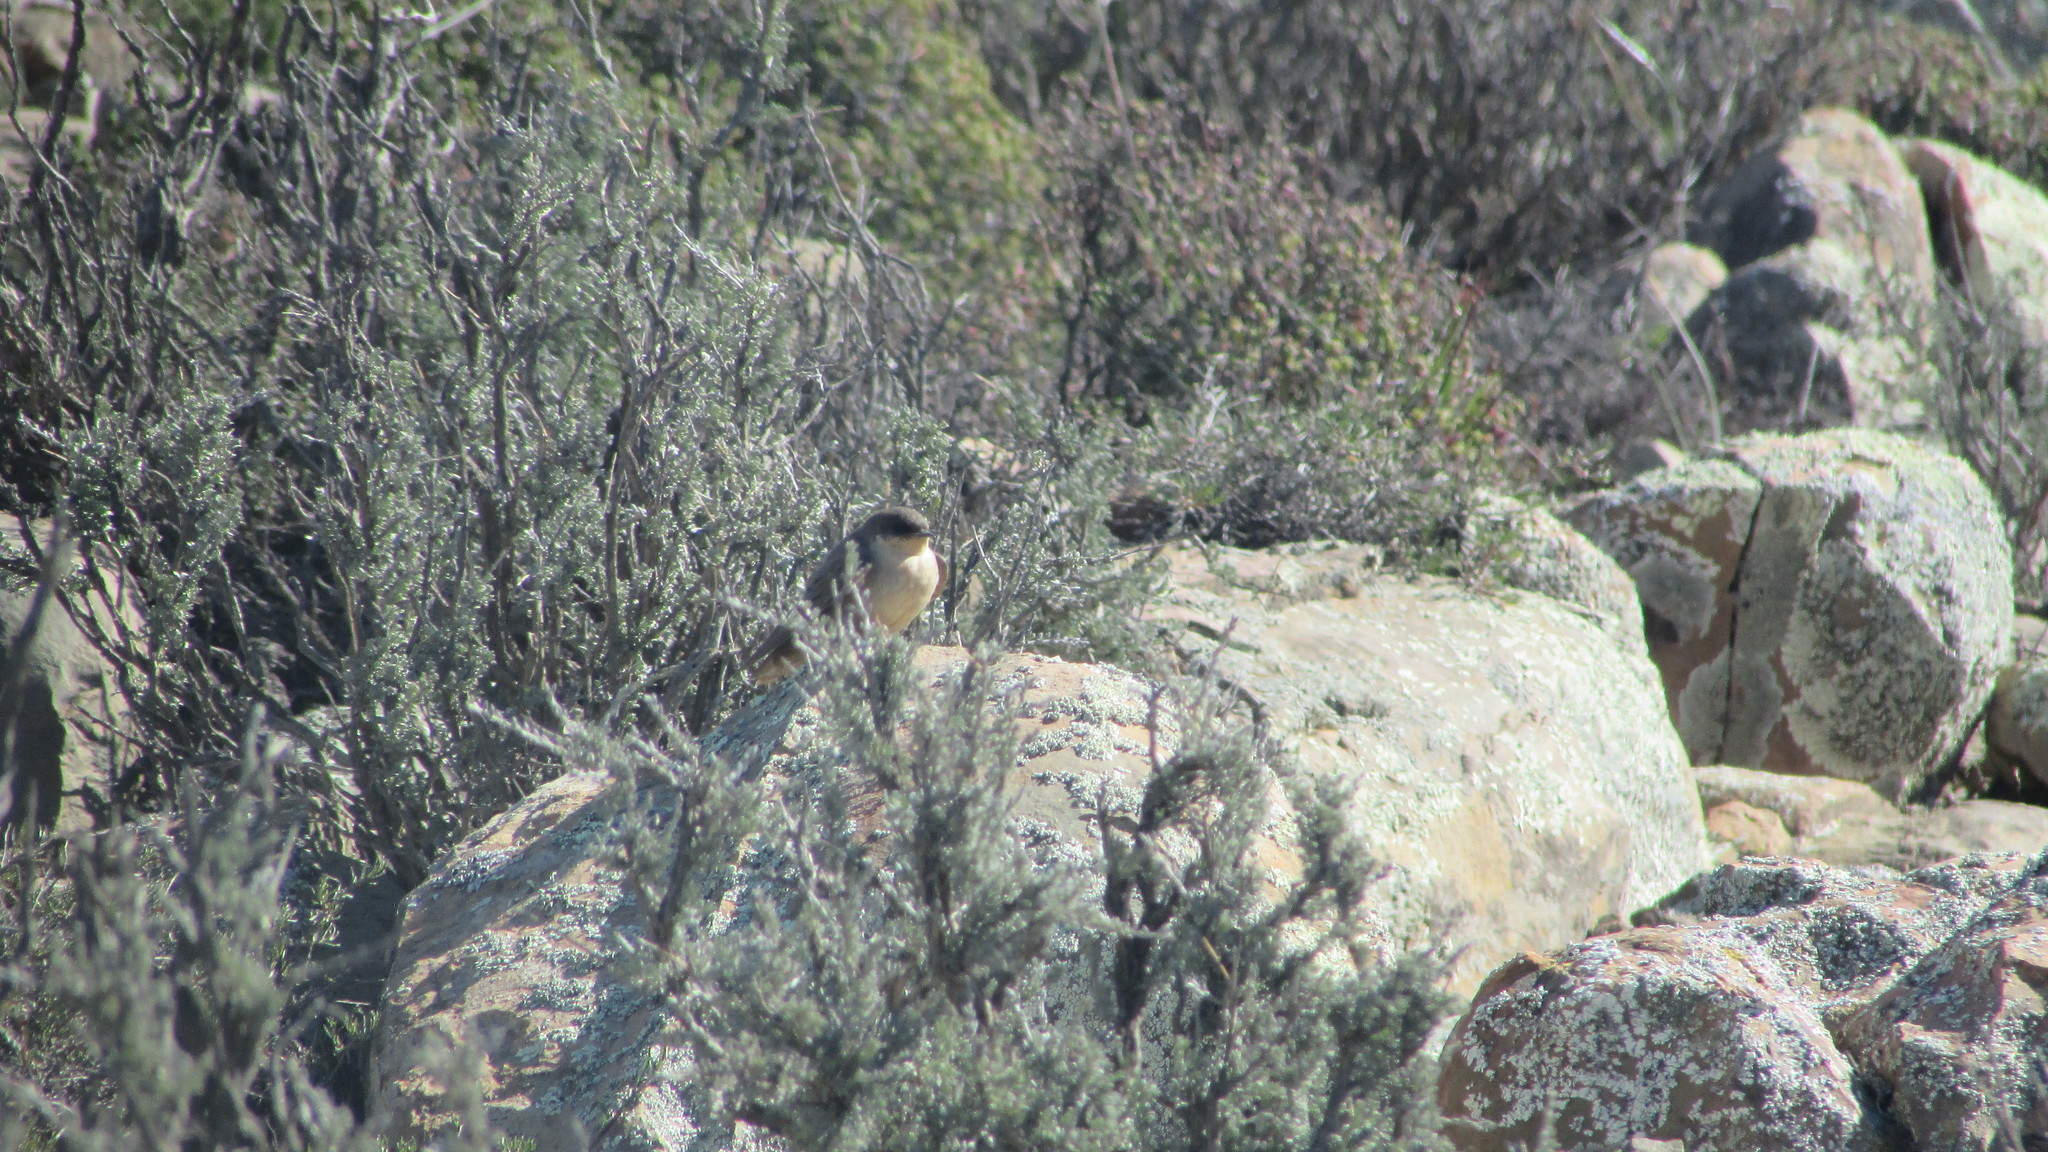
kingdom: Animalia
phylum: Chordata
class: Aves
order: Passeriformes
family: Hirundinidae
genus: Ptyonoprogne
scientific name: Ptyonoprogne fuligula
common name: Rock martin
